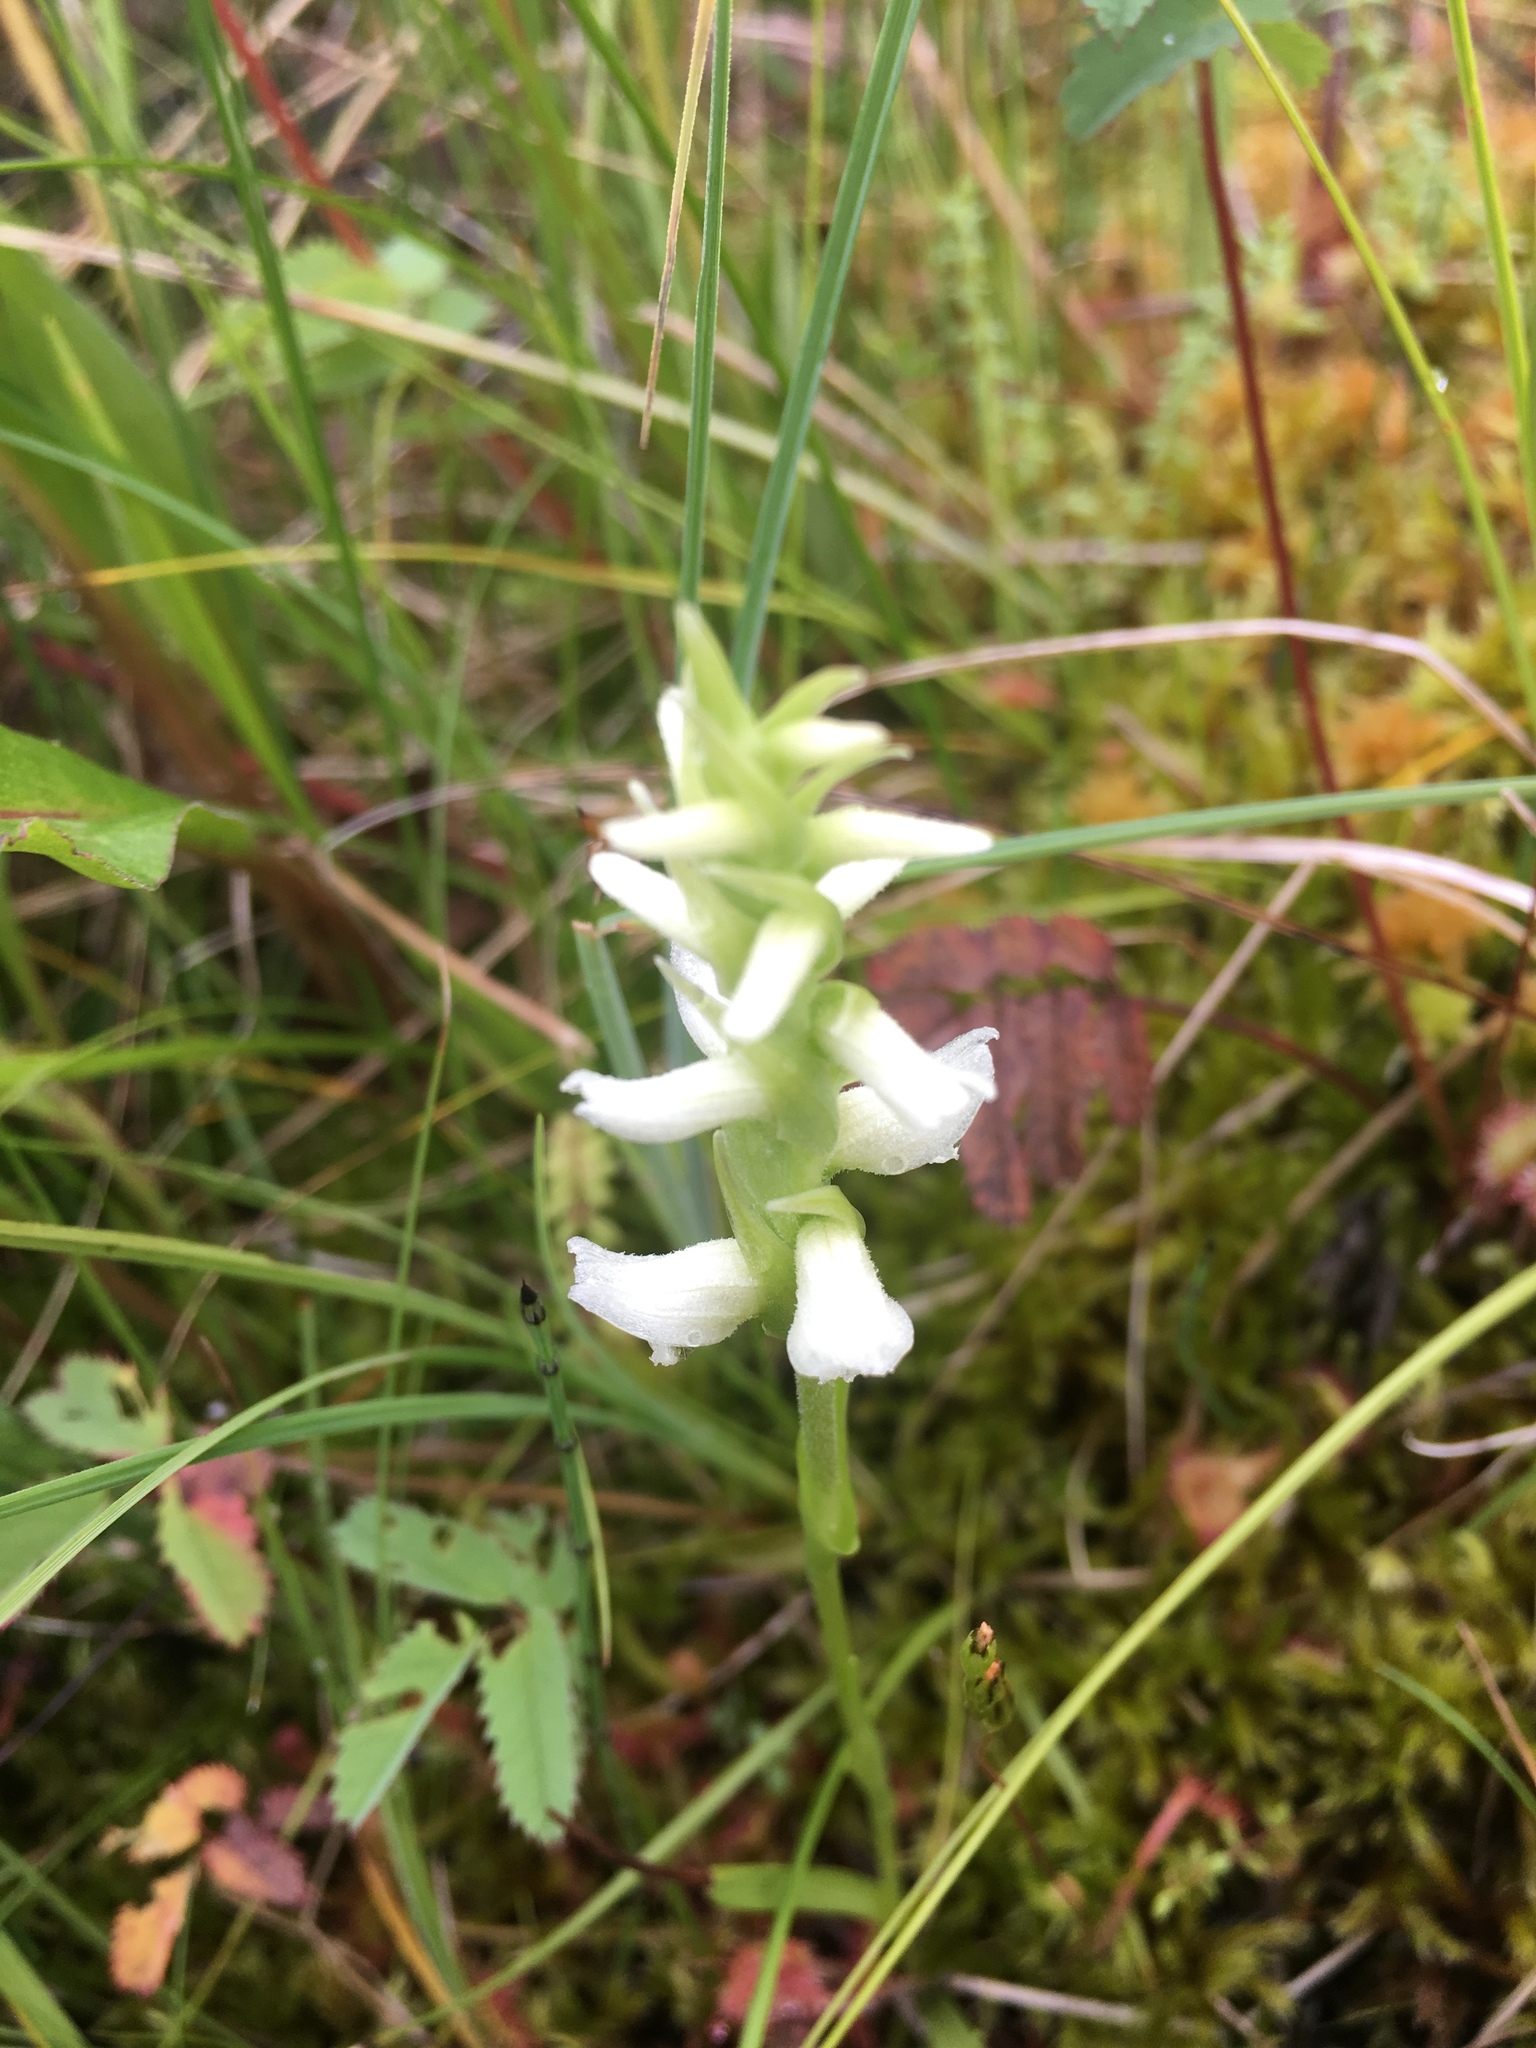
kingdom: Plantae
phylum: Tracheophyta
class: Liliopsida
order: Asparagales
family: Orchidaceae
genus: Spiranthes
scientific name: Spiranthes romanzoffiana
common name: Irish lady's-tresses
